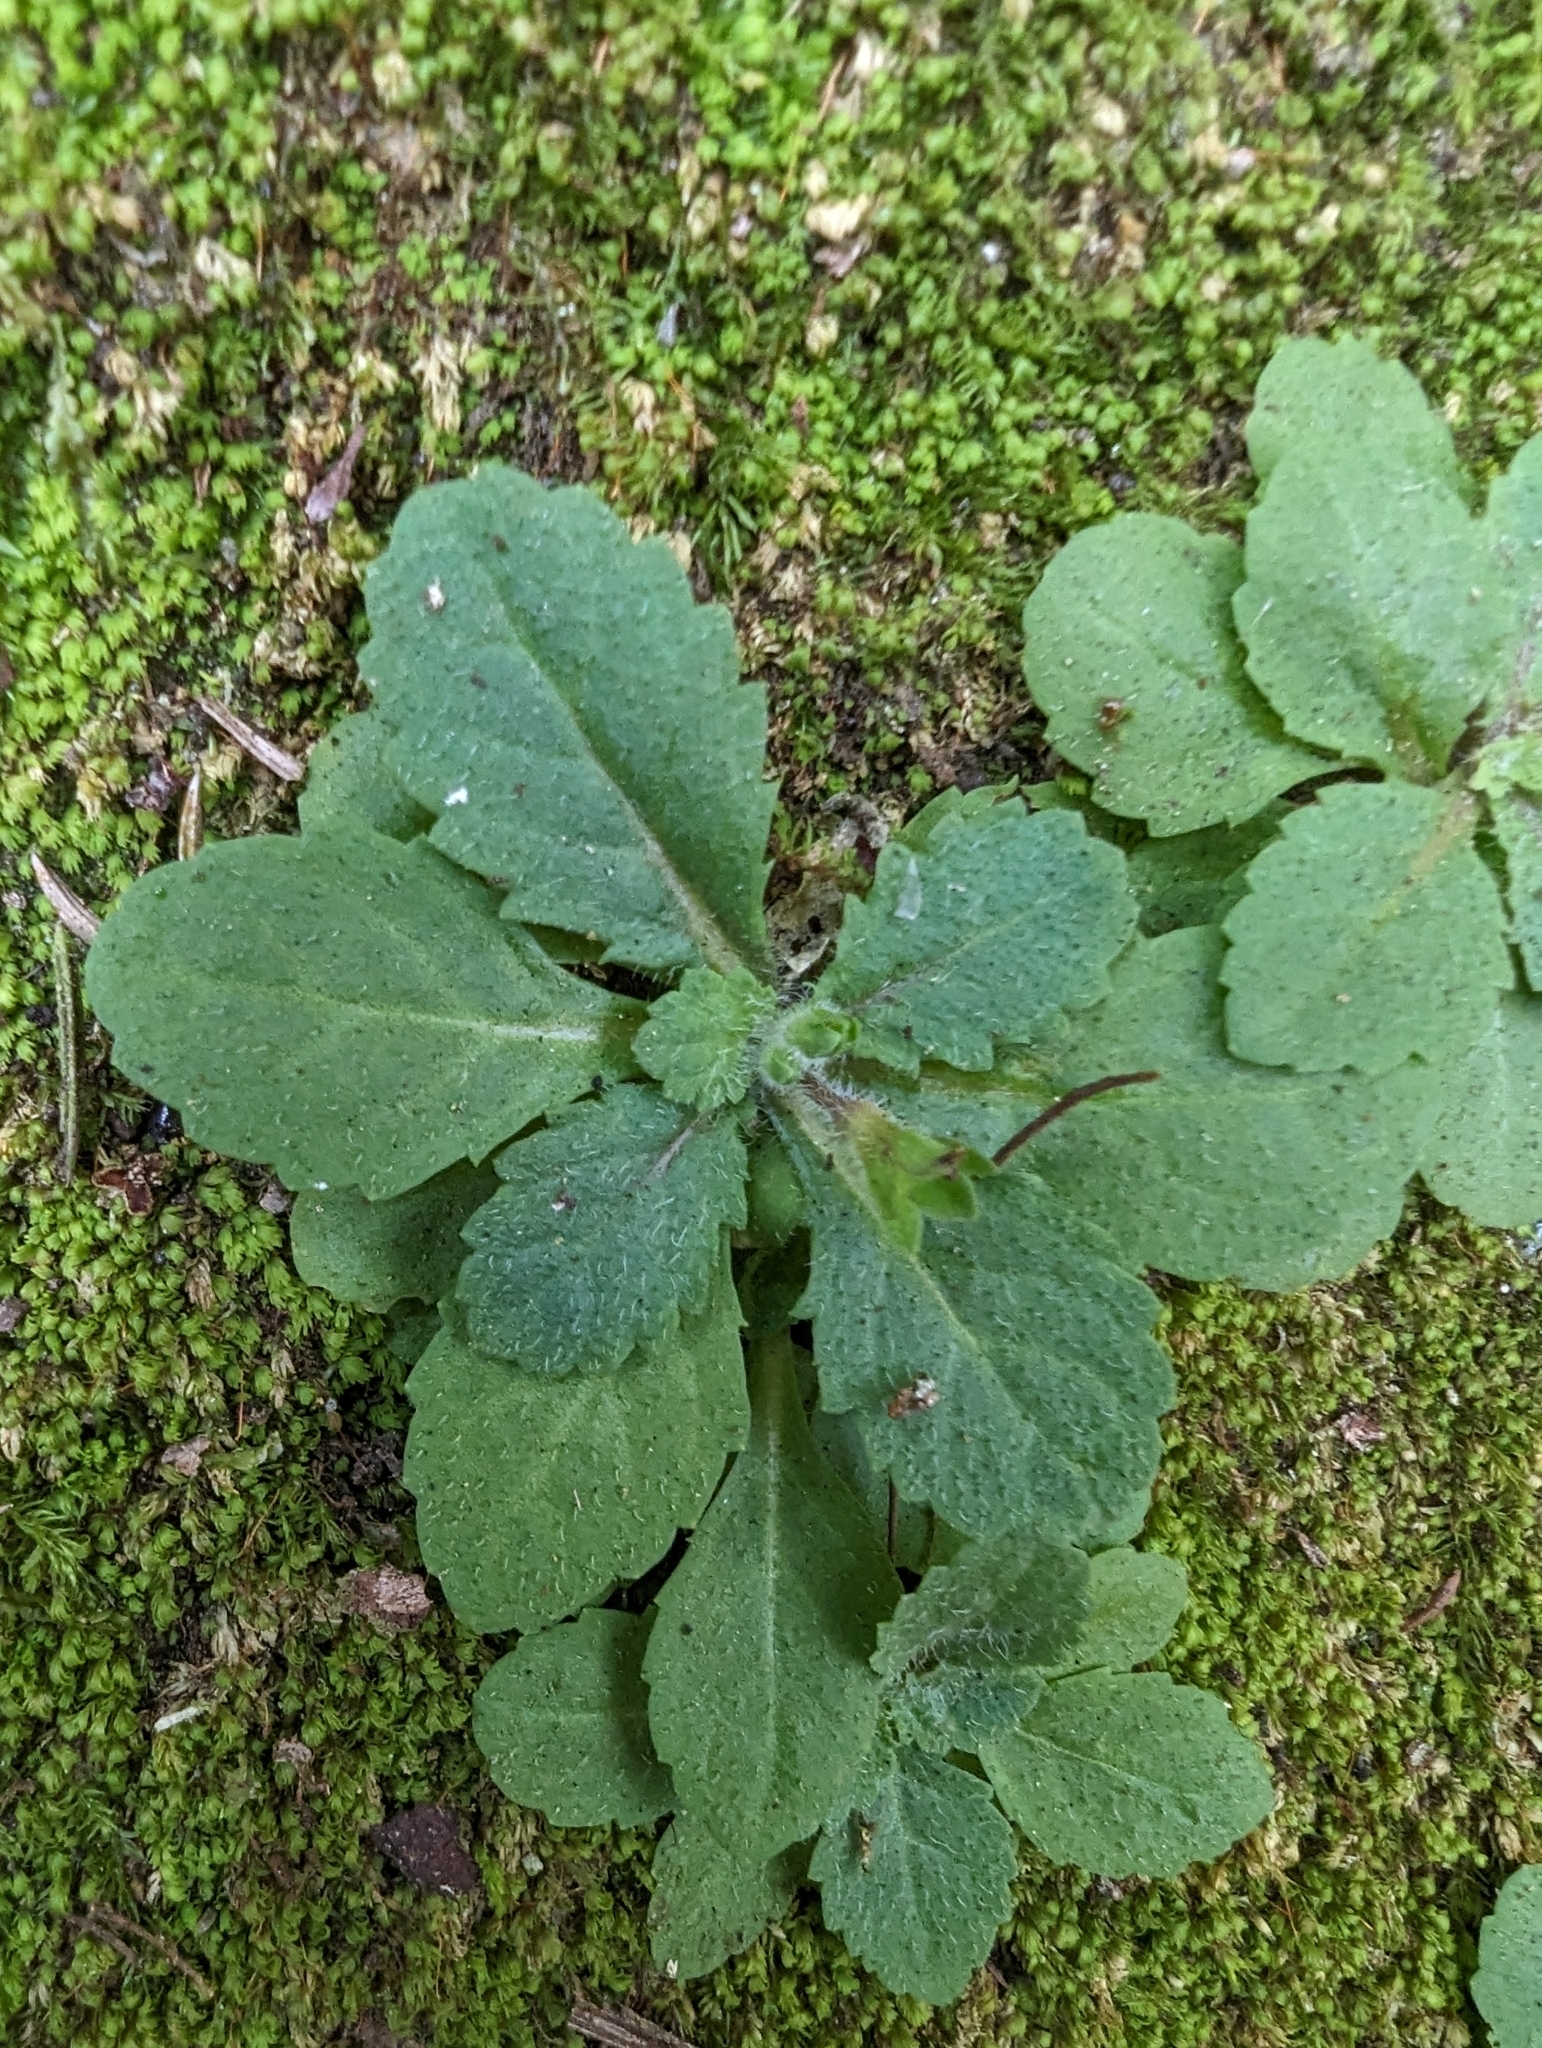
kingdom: Plantae
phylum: Tracheophyta
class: Magnoliopsida
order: Lamiales
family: Mazaceae
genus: Mazus
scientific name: Mazus goodeniifolius
